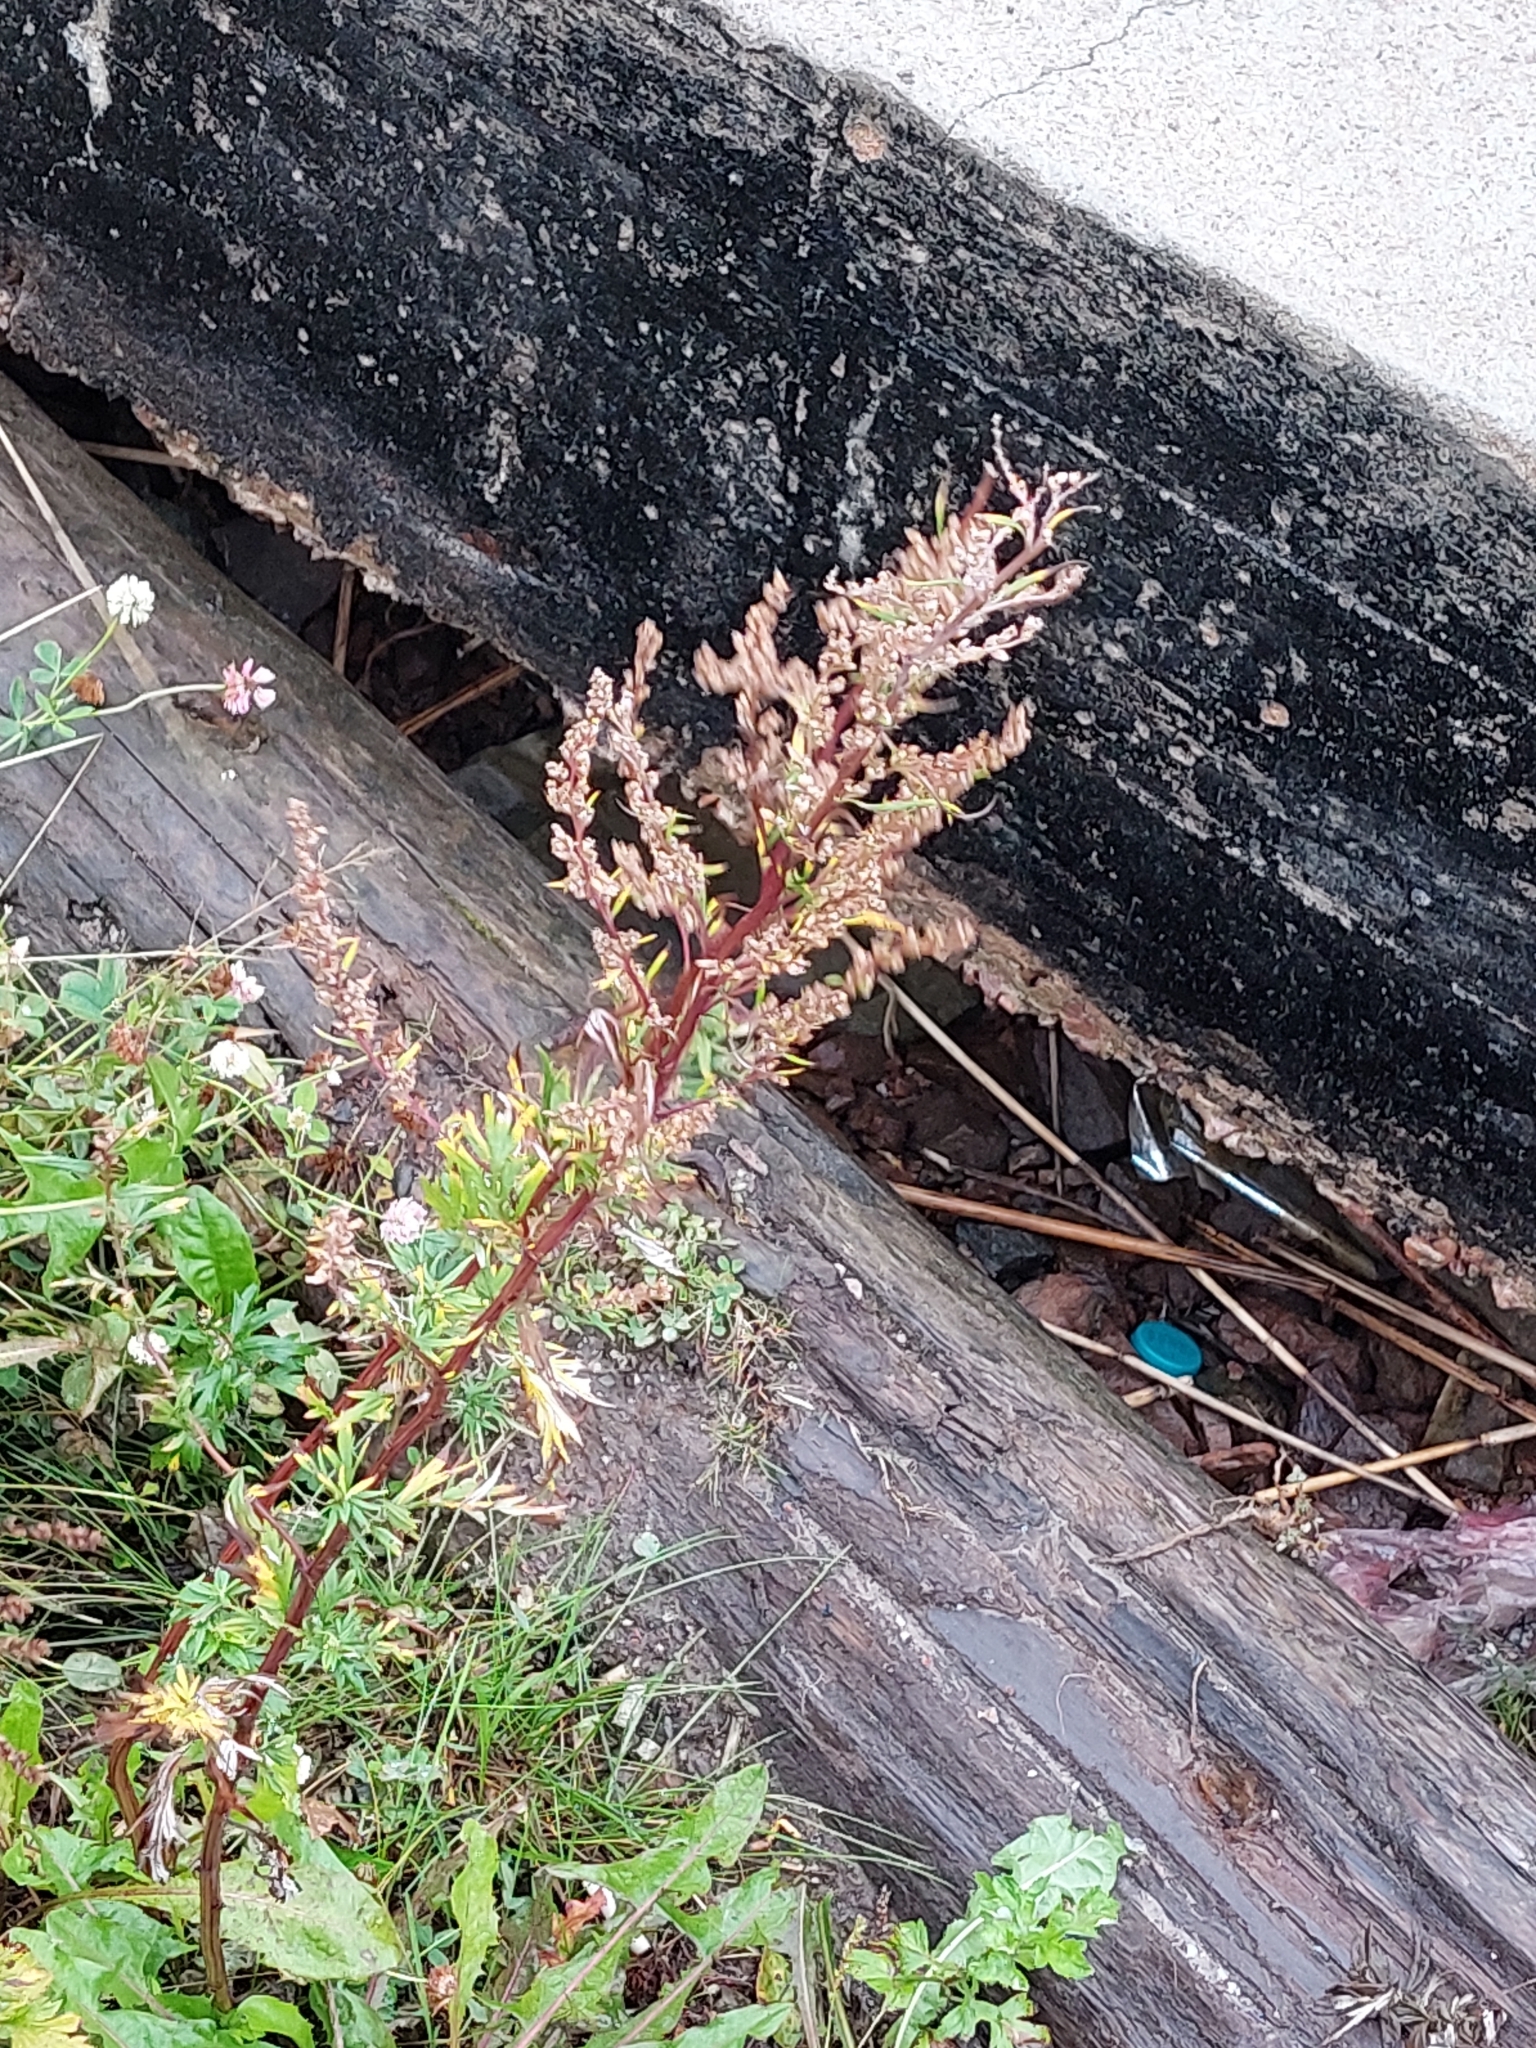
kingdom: Plantae
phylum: Tracheophyta
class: Magnoliopsida
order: Asterales
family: Asteraceae
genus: Artemisia
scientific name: Artemisia vulgaris
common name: Mugwort
